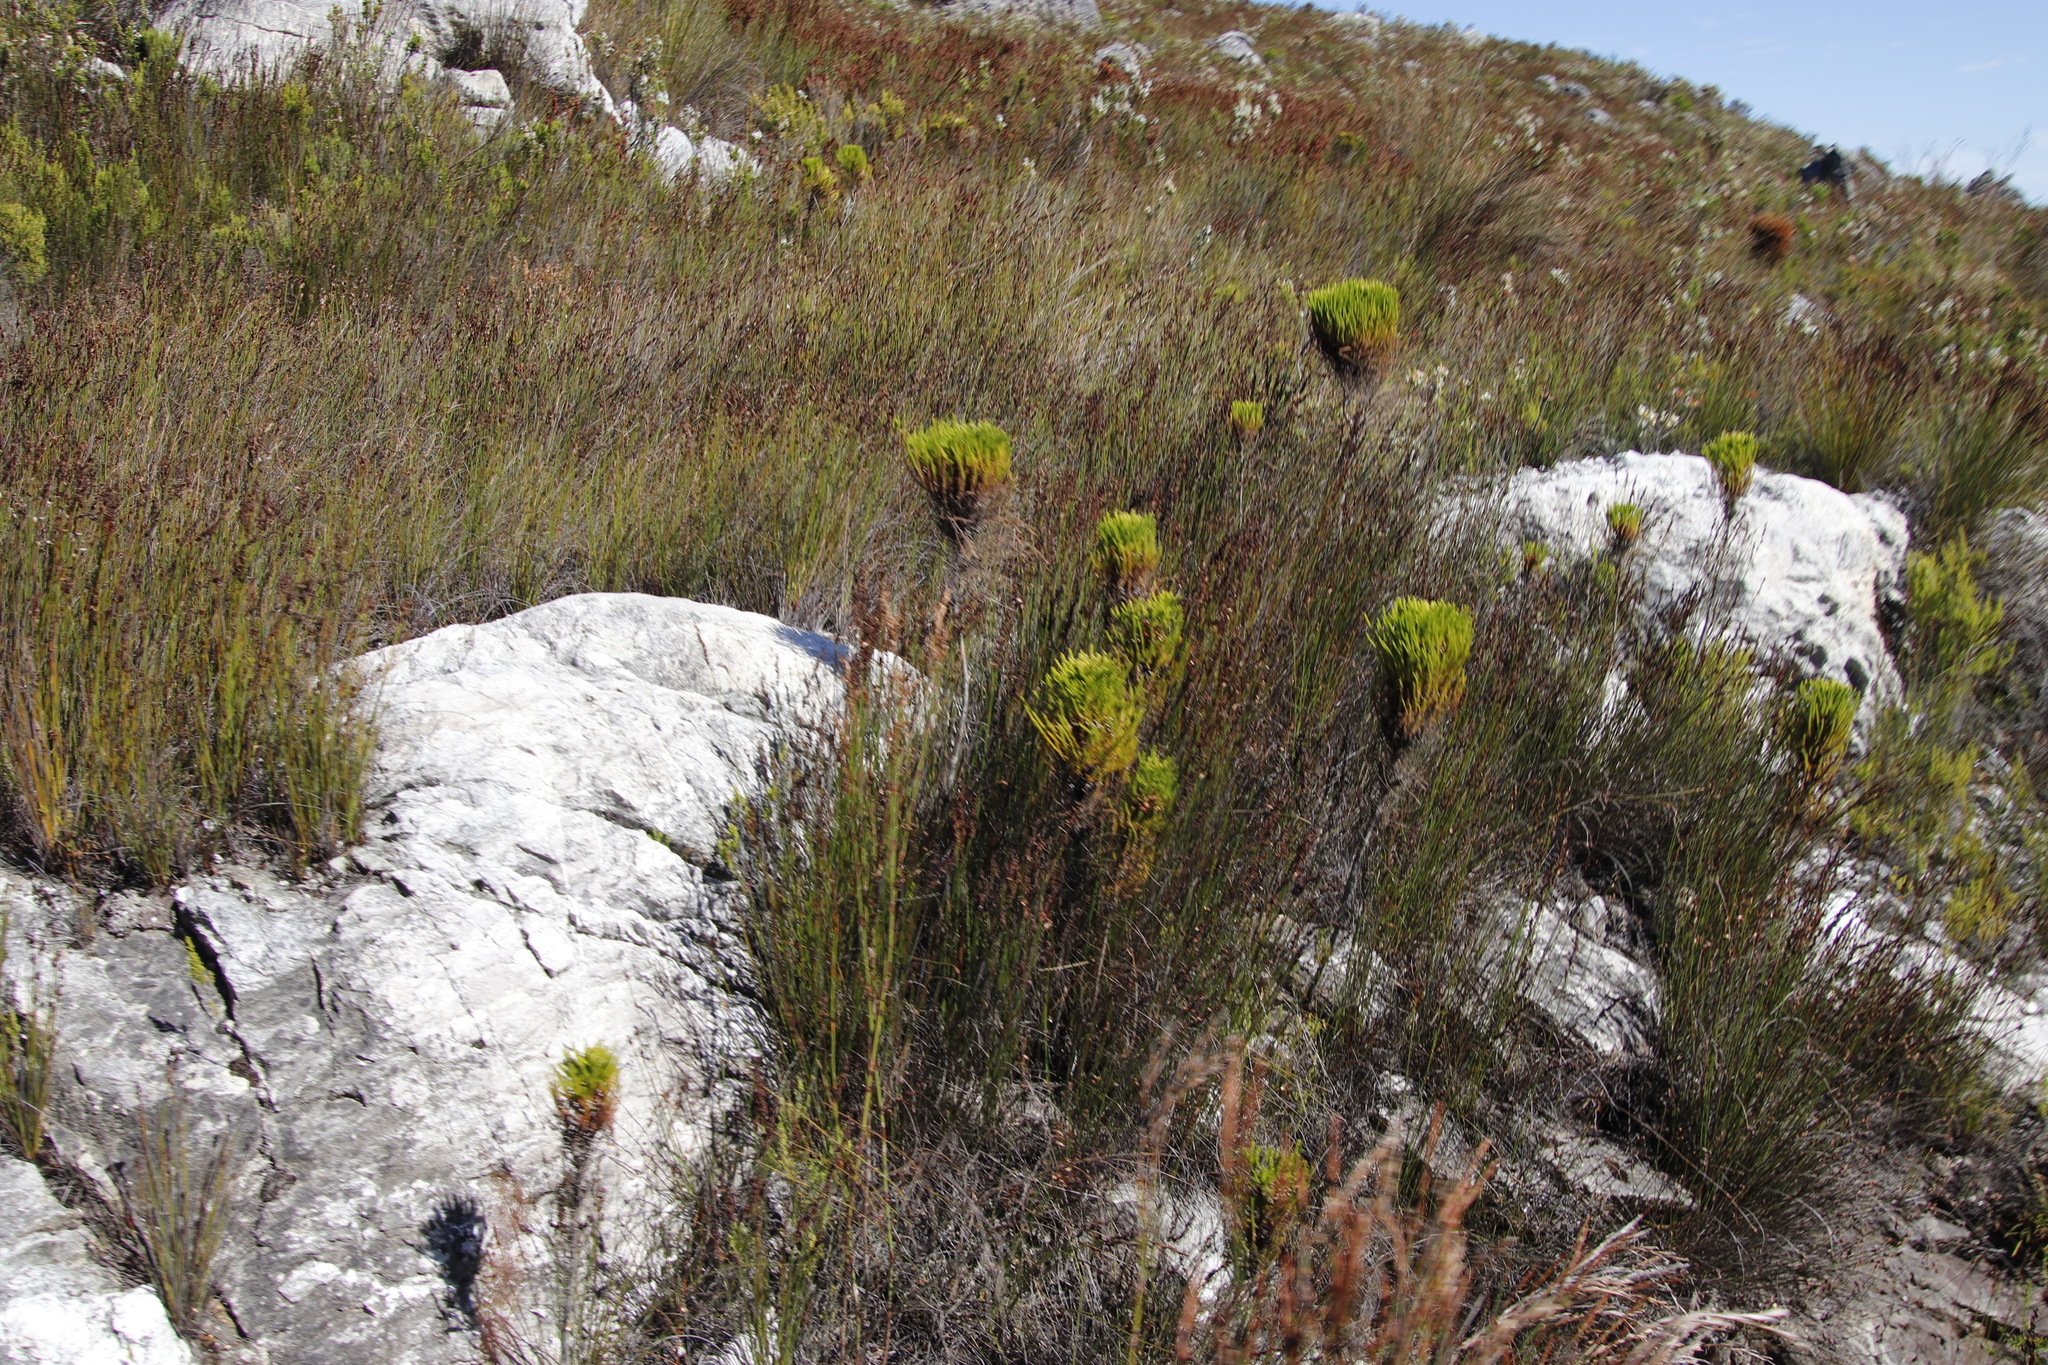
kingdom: Plantae
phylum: Tracheophyta
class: Magnoliopsida
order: Bruniales
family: Bruniaceae
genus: Berzelia
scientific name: Berzelia alopecurioides
